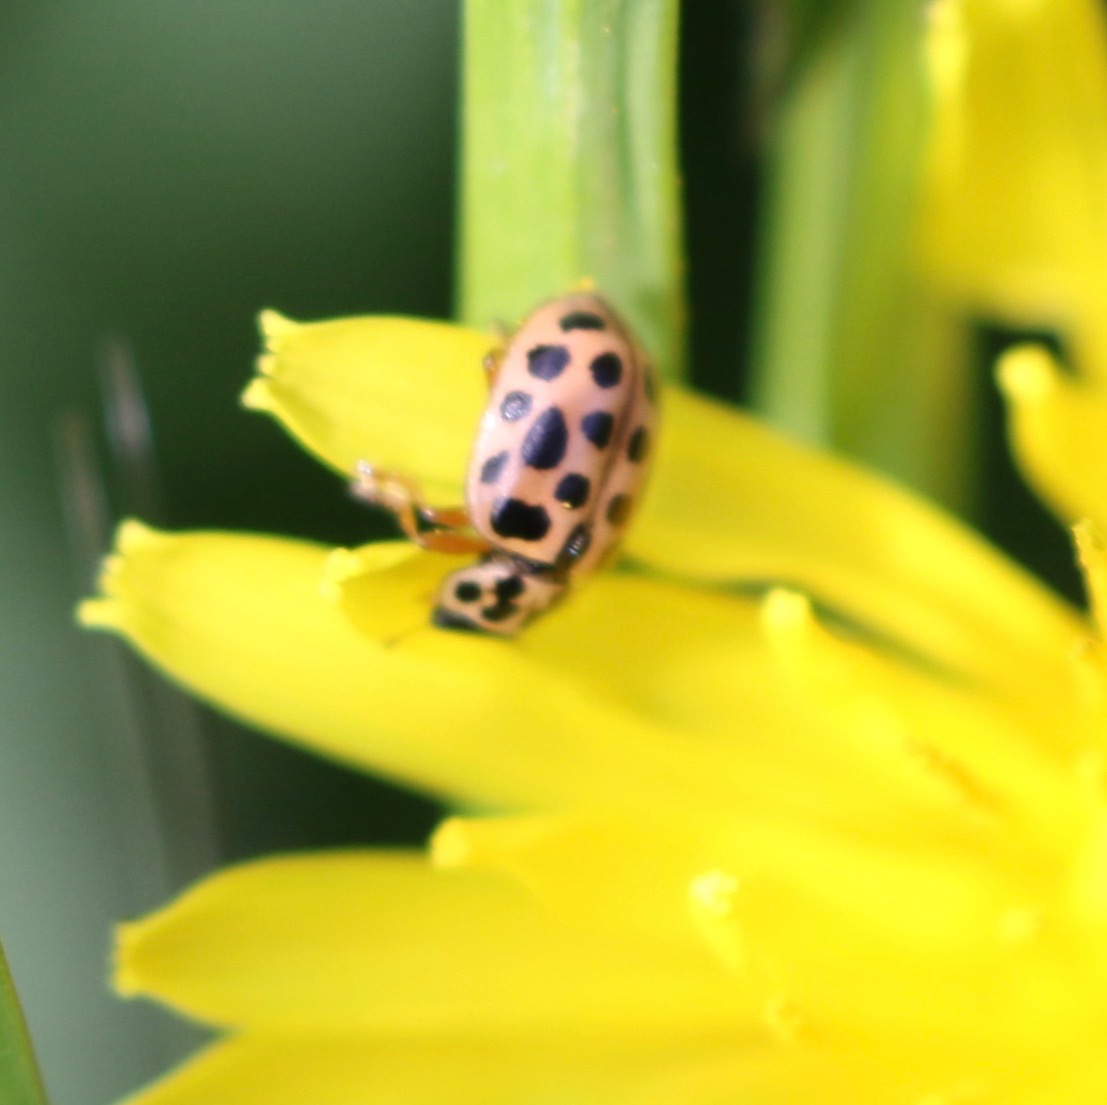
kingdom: Animalia
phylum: Arthropoda
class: Insecta
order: Coleoptera
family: Coccinellidae
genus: Anisosticta
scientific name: Anisosticta novemdecimpunctata
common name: Water ladybird
